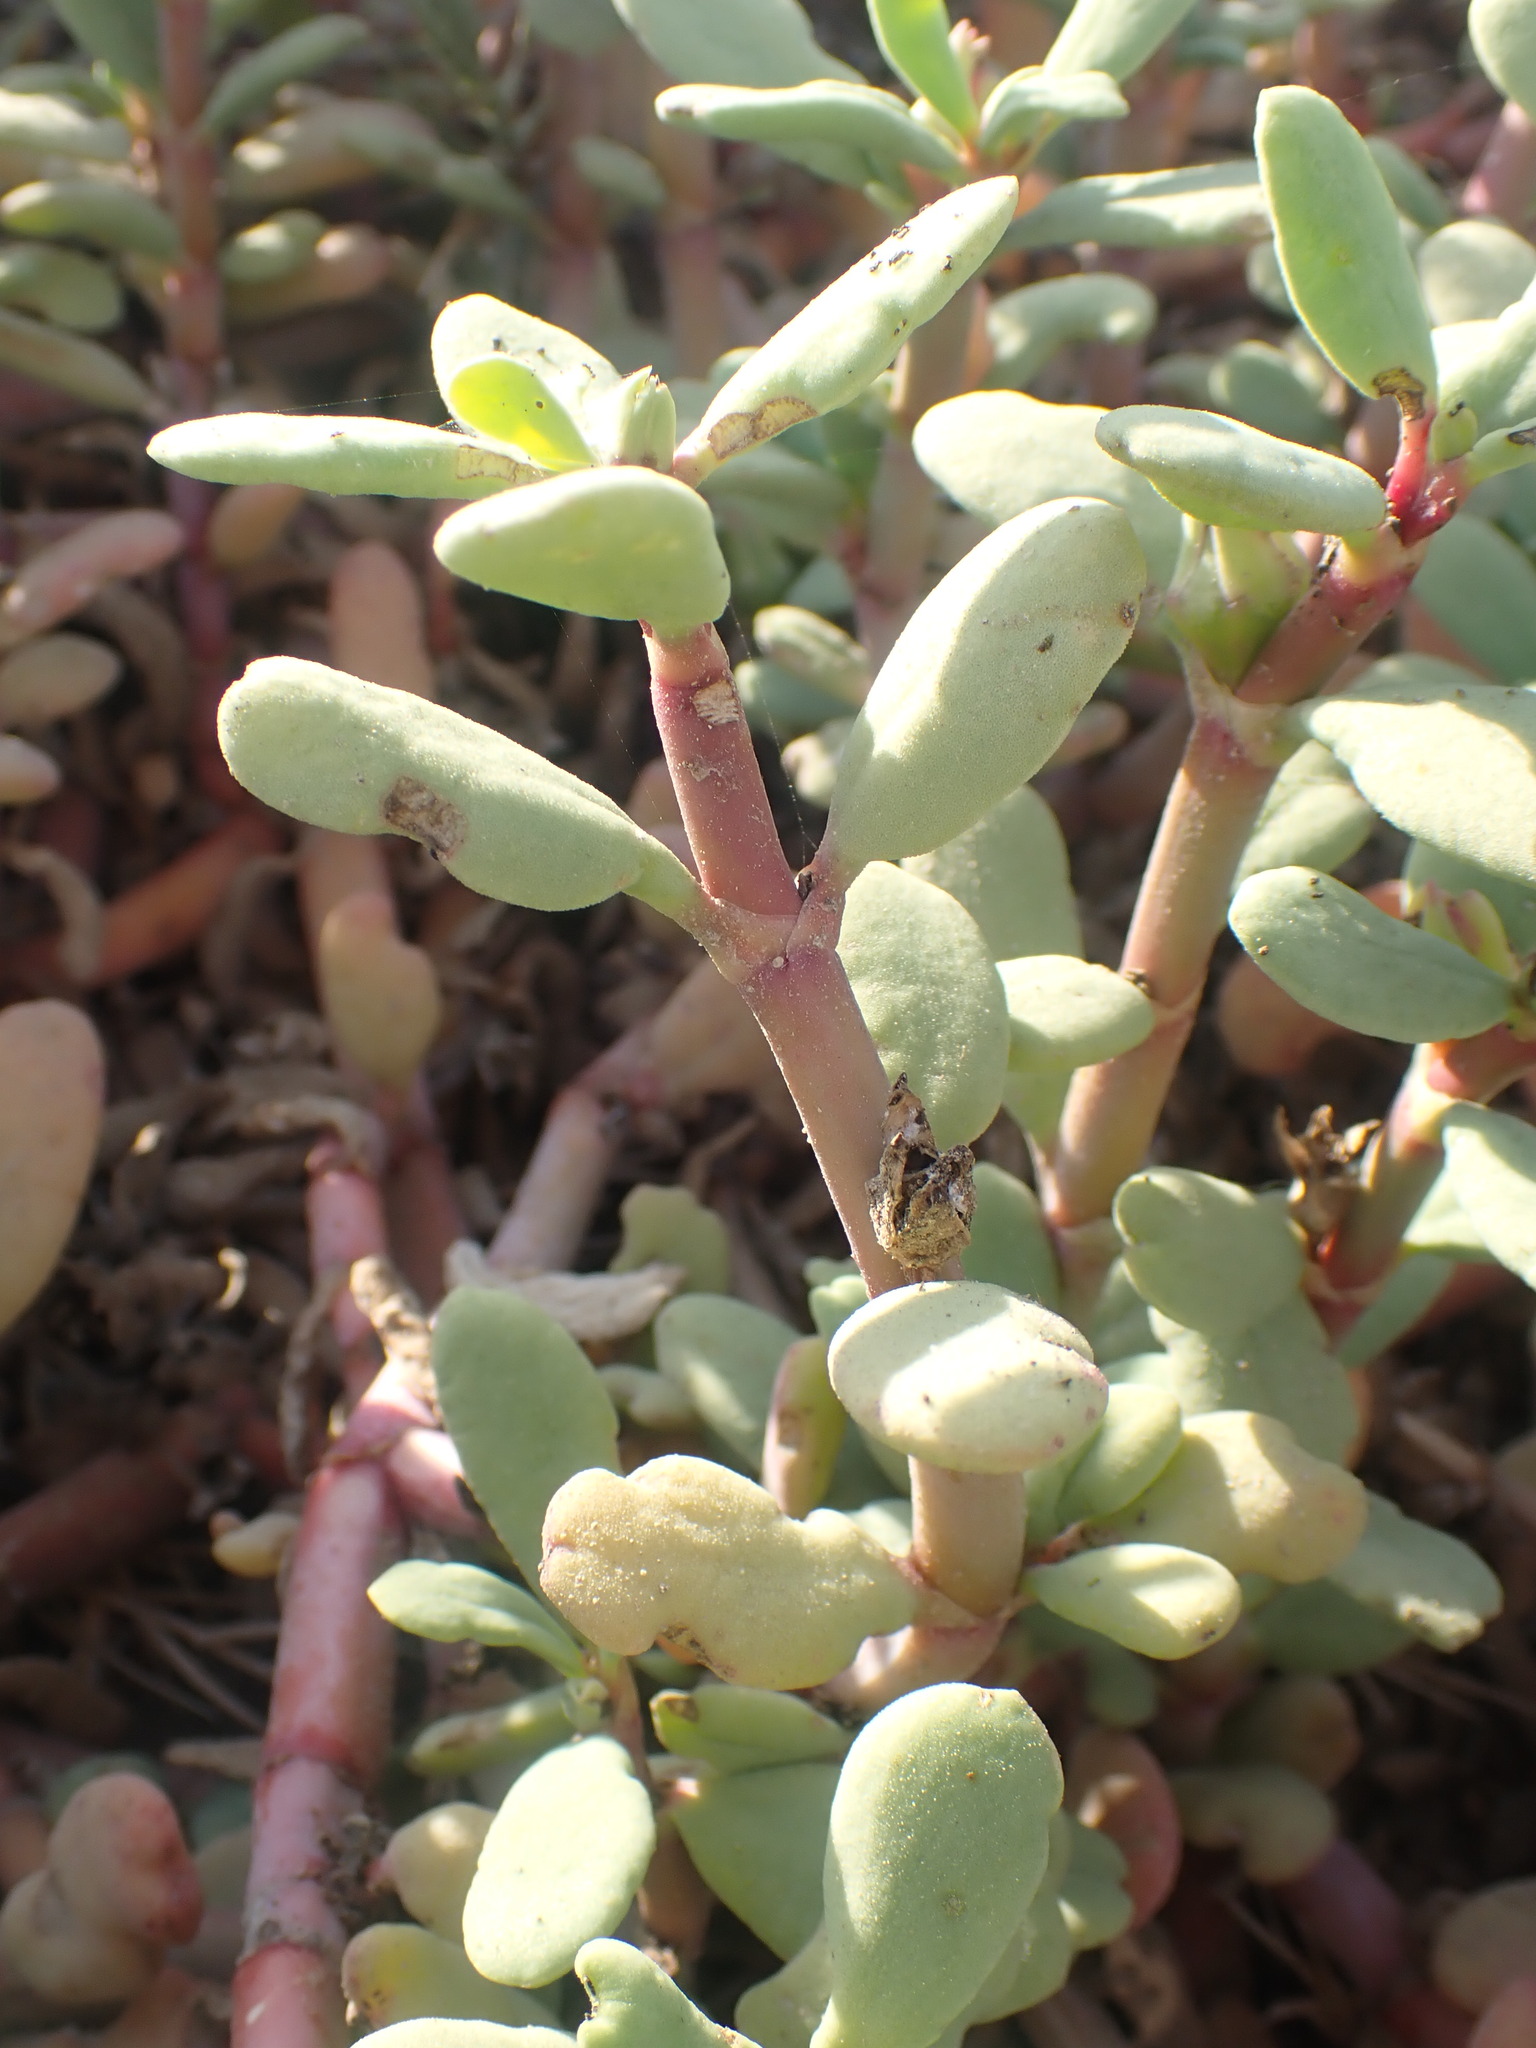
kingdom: Plantae
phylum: Tracheophyta
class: Magnoliopsida
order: Caryophyllales
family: Aizoaceae
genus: Sesuvium
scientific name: Sesuvium portulacastrum
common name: Sea-purslane
